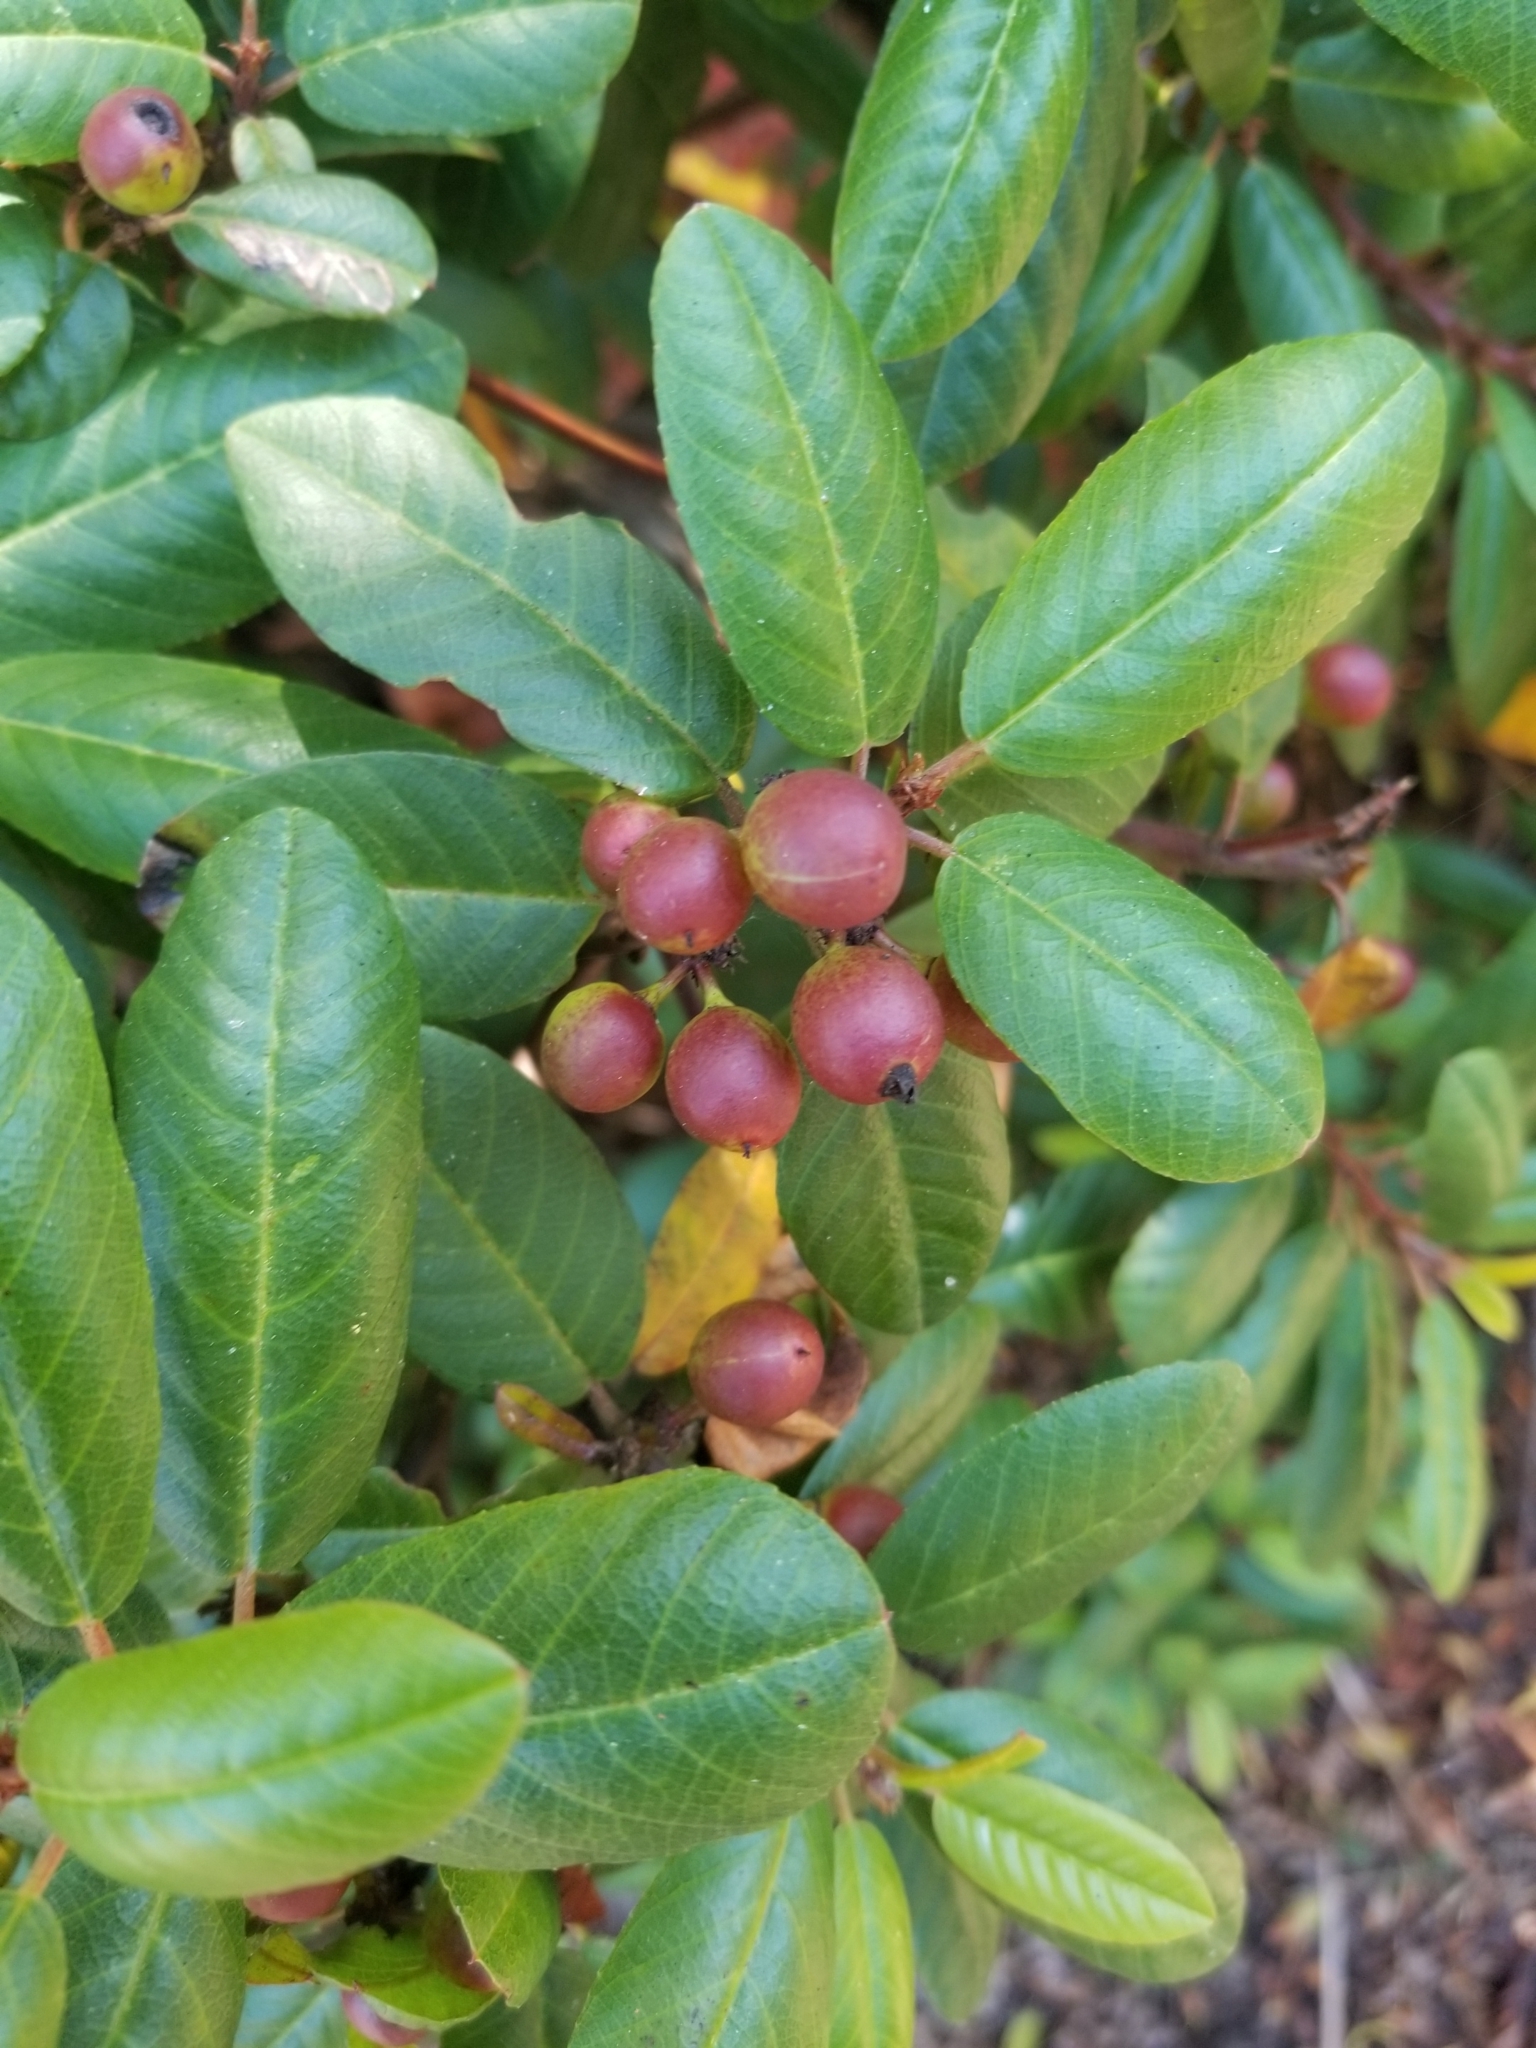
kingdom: Plantae
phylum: Tracheophyta
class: Magnoliopsida
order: Rosales
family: Rhamnaceae
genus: Frangula
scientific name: Frangula californica
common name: California buckthorn
